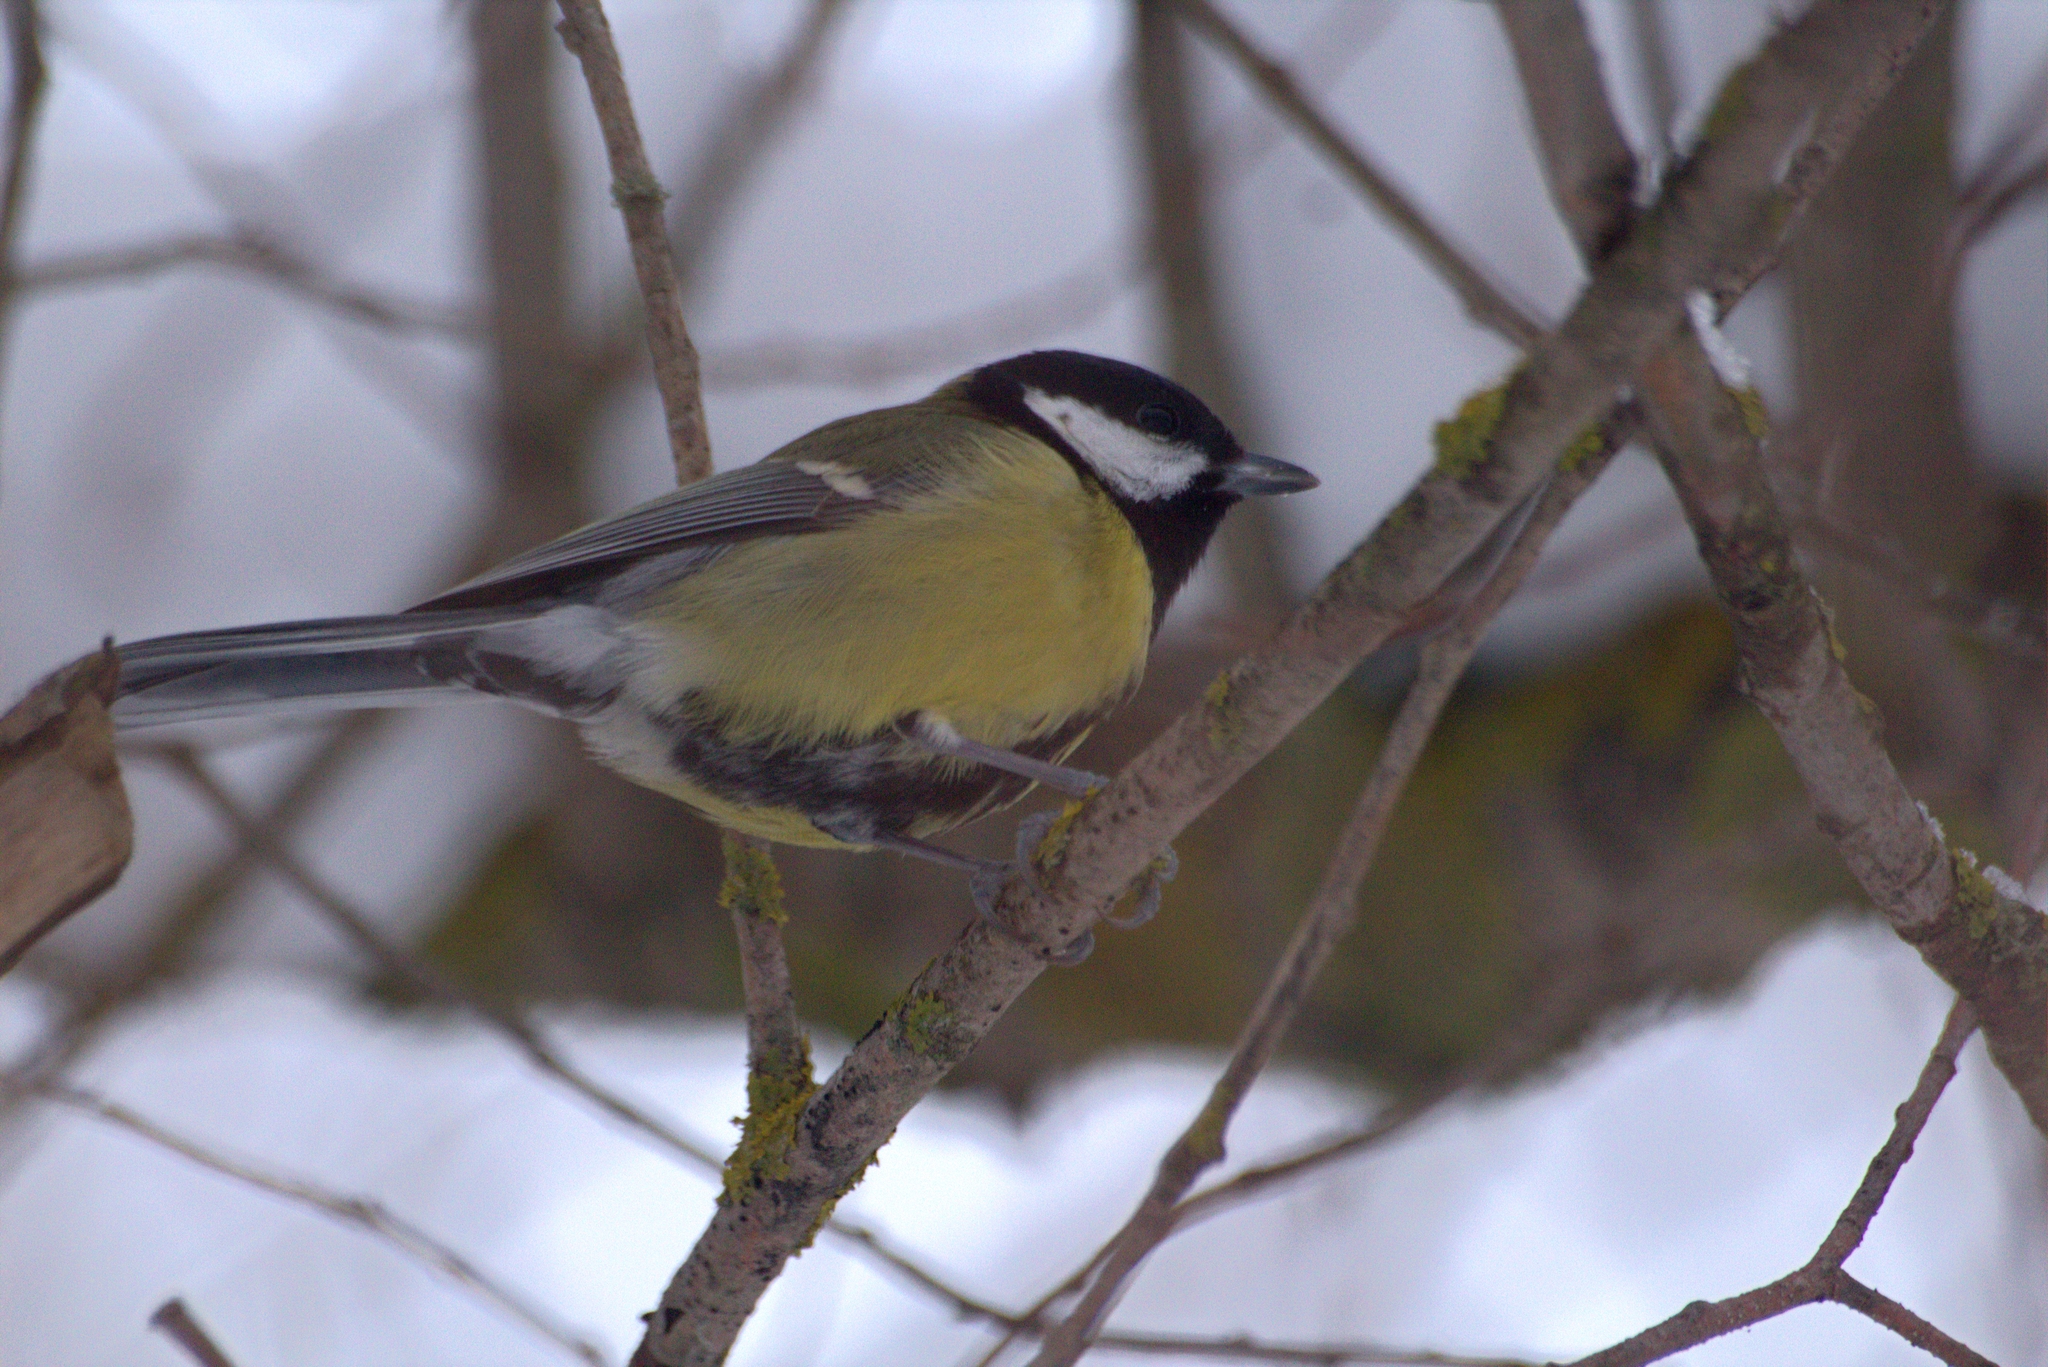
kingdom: Animalia
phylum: Chordata
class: Aves
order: Passeriformes
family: Paridae
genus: Parus
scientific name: Parus major
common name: Great tit
